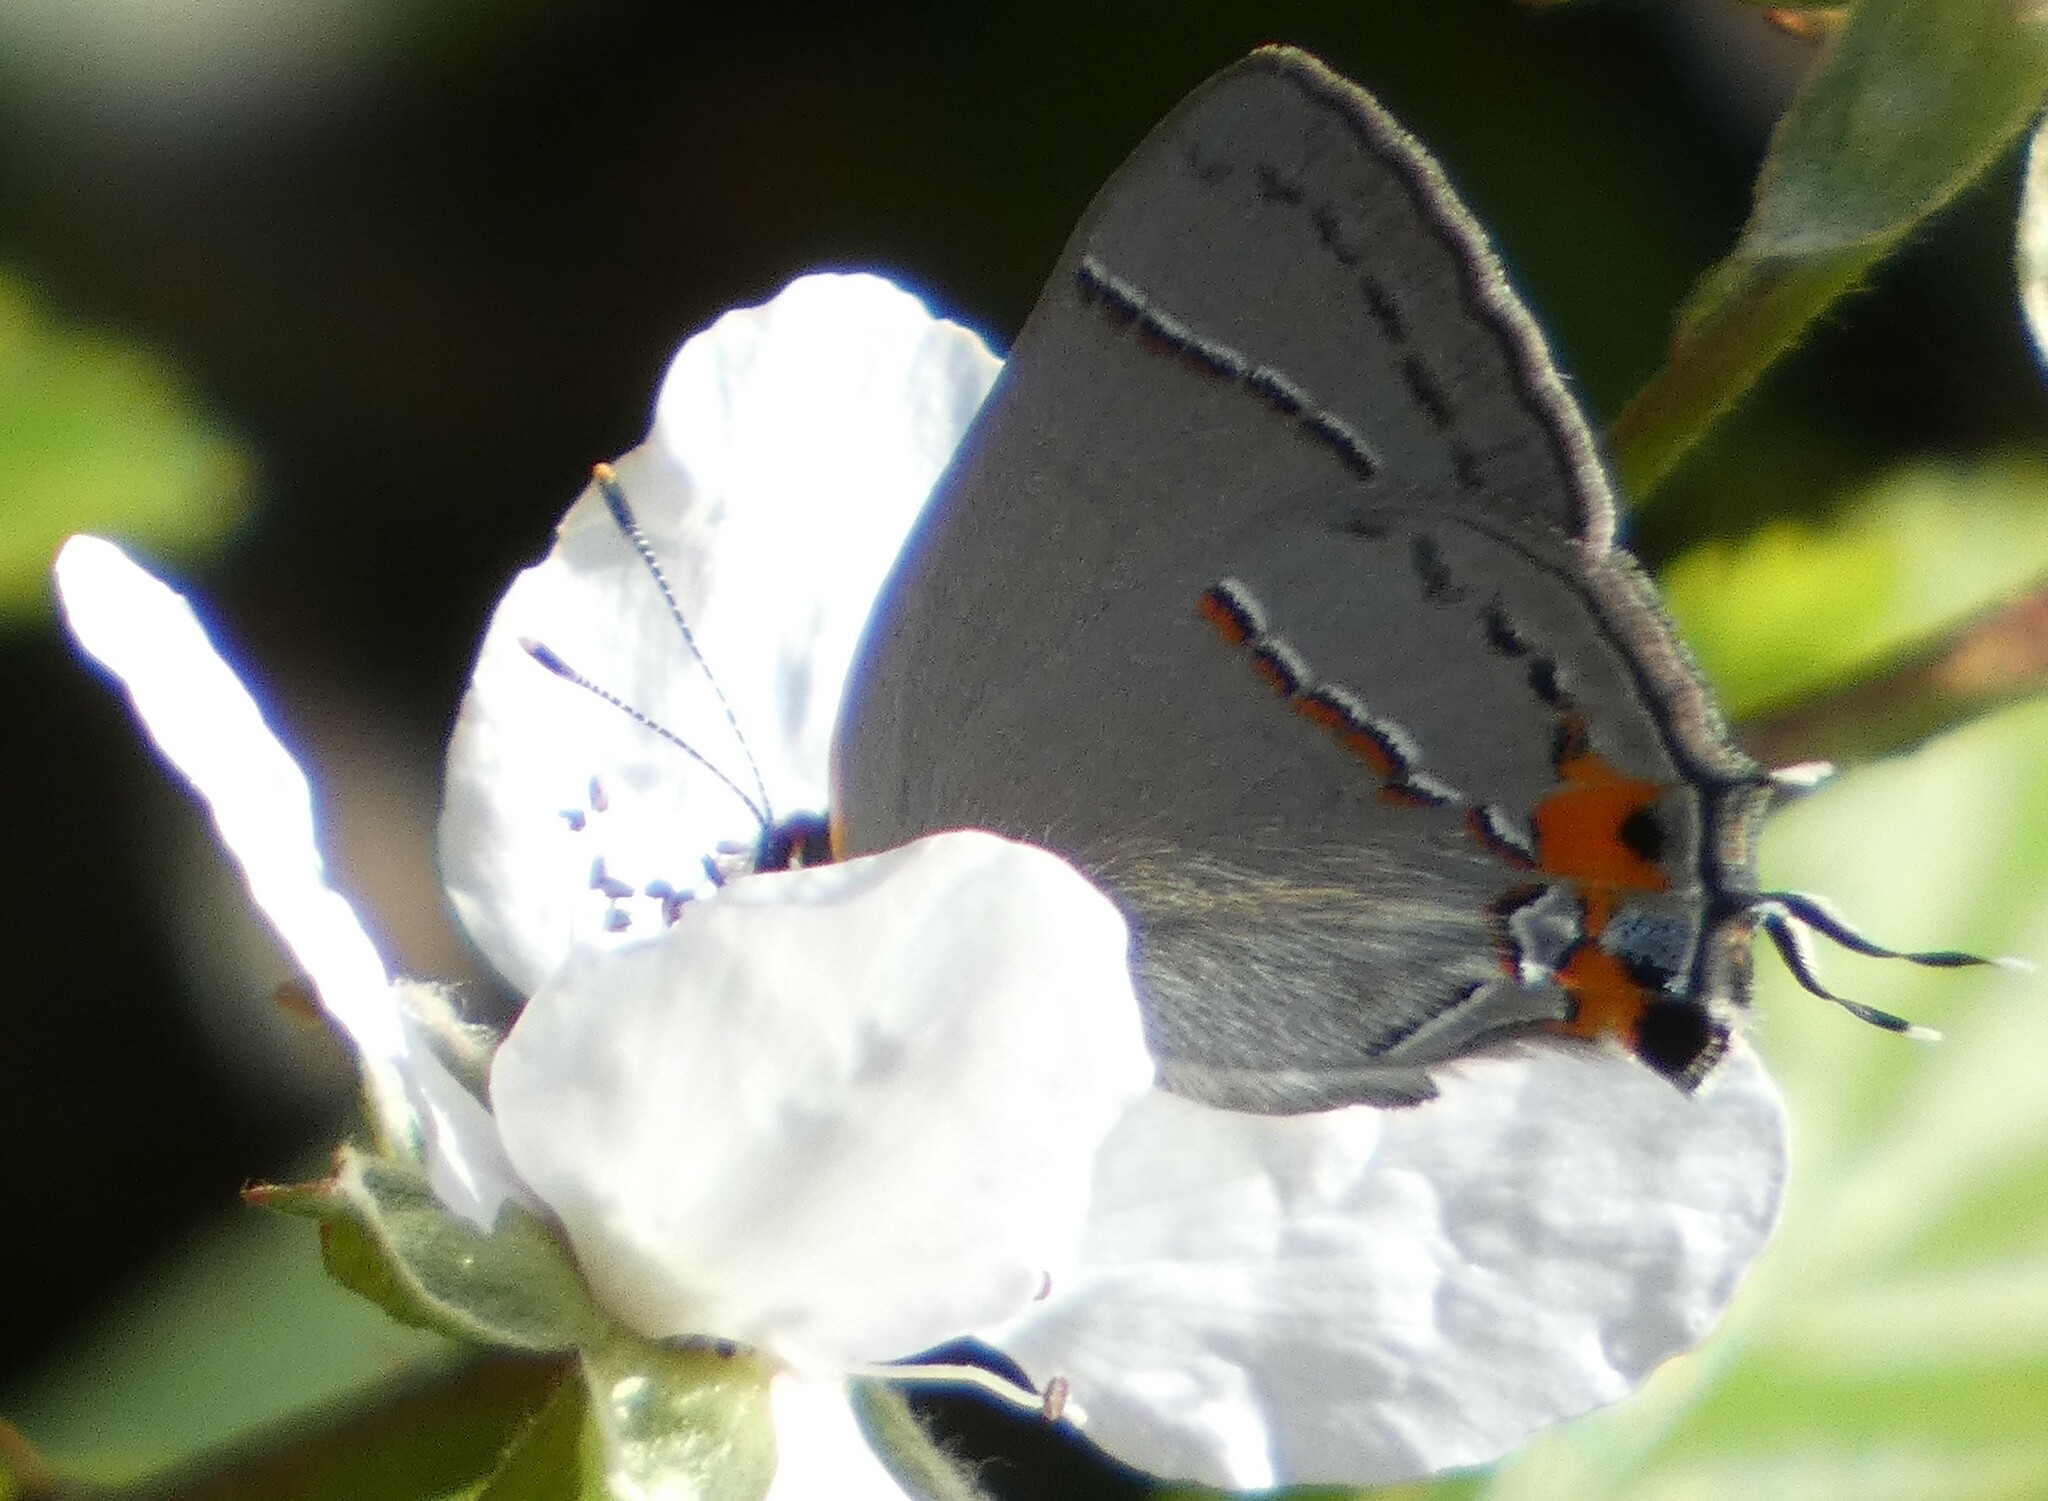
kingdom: Animalia
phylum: Arthropoda
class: Insecta
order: Lepidoptera
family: Lycaenidae
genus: Strymon
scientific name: Strymon melinus
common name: Gray hairstreak
